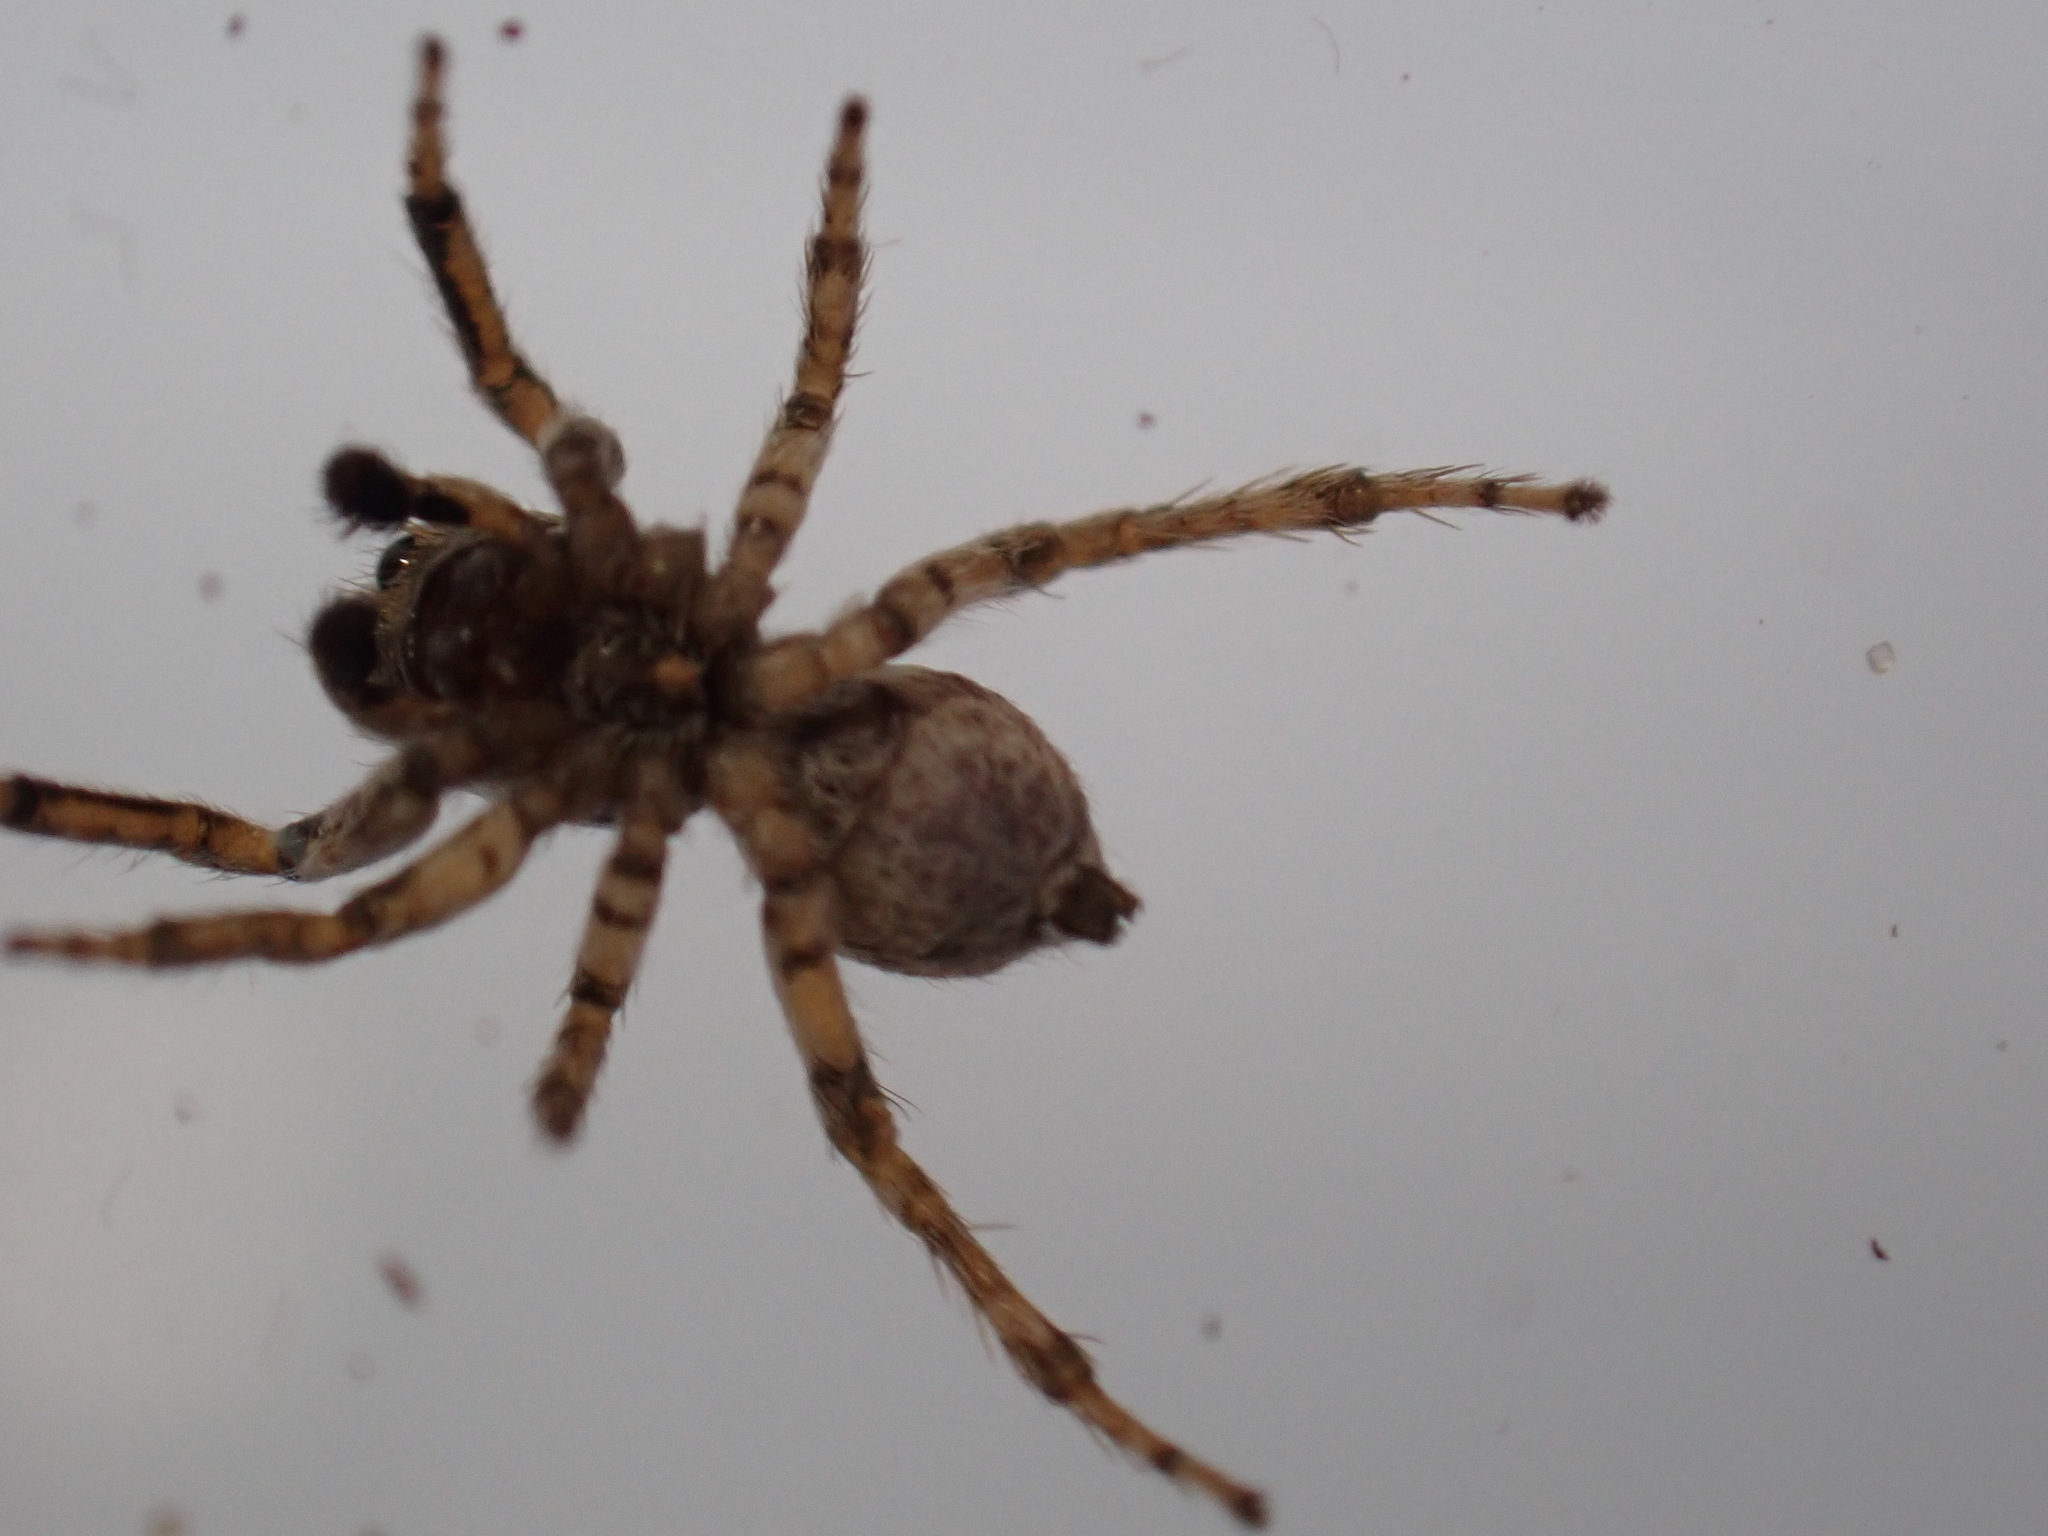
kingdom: Animalia
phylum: Arthropoda
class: Arachnida
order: Araneae
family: Salticidae
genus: Attulus
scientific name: Attulus distinguendus
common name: Distinguished jumper
